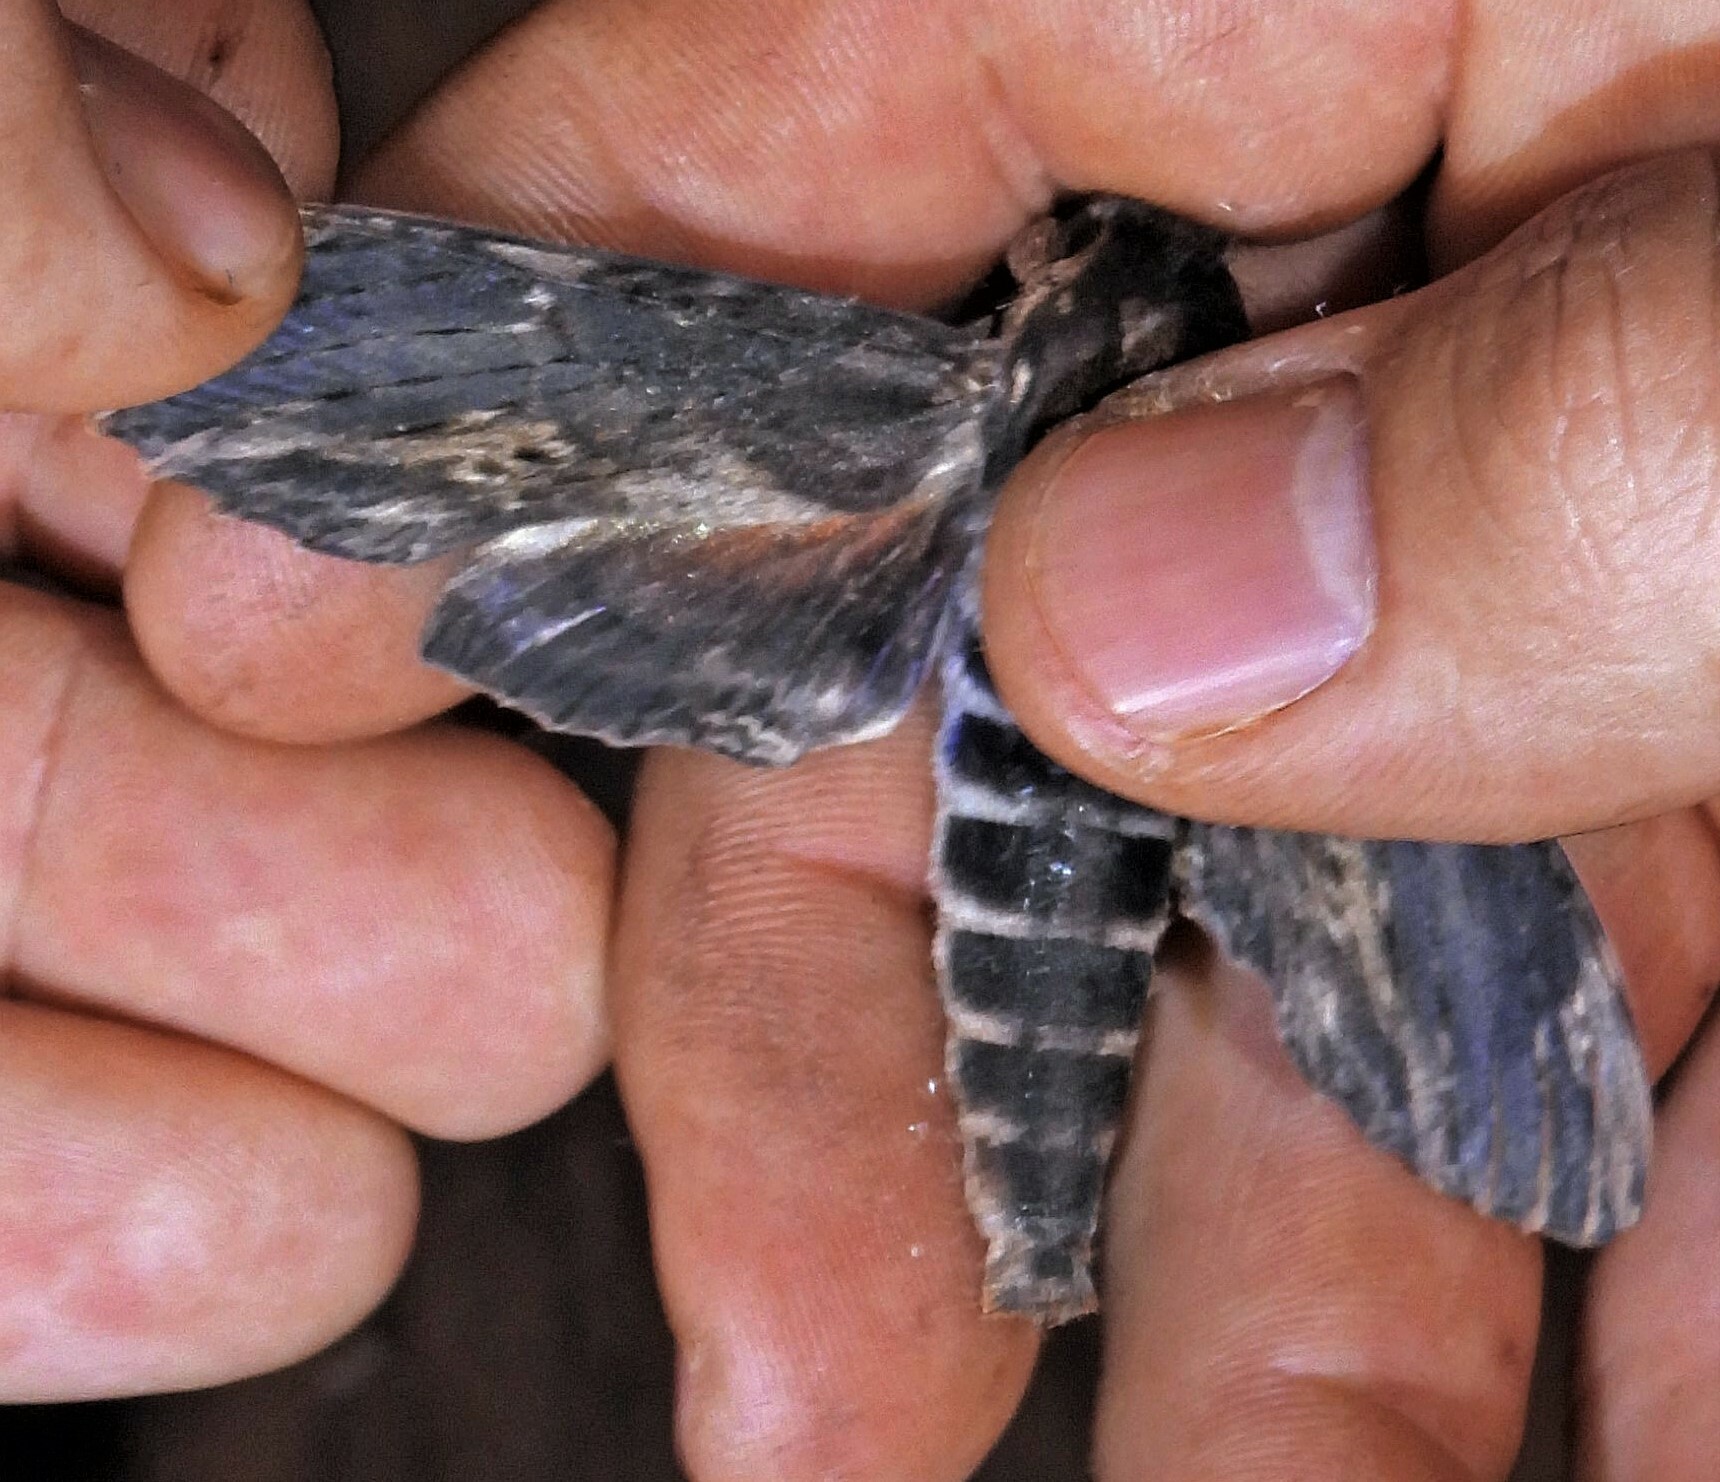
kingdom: Animalia
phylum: Arthropoda
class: Insecta
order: Lepidoptera
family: Sphingidae
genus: Erinnyis
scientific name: Erinnyis lassauxi
